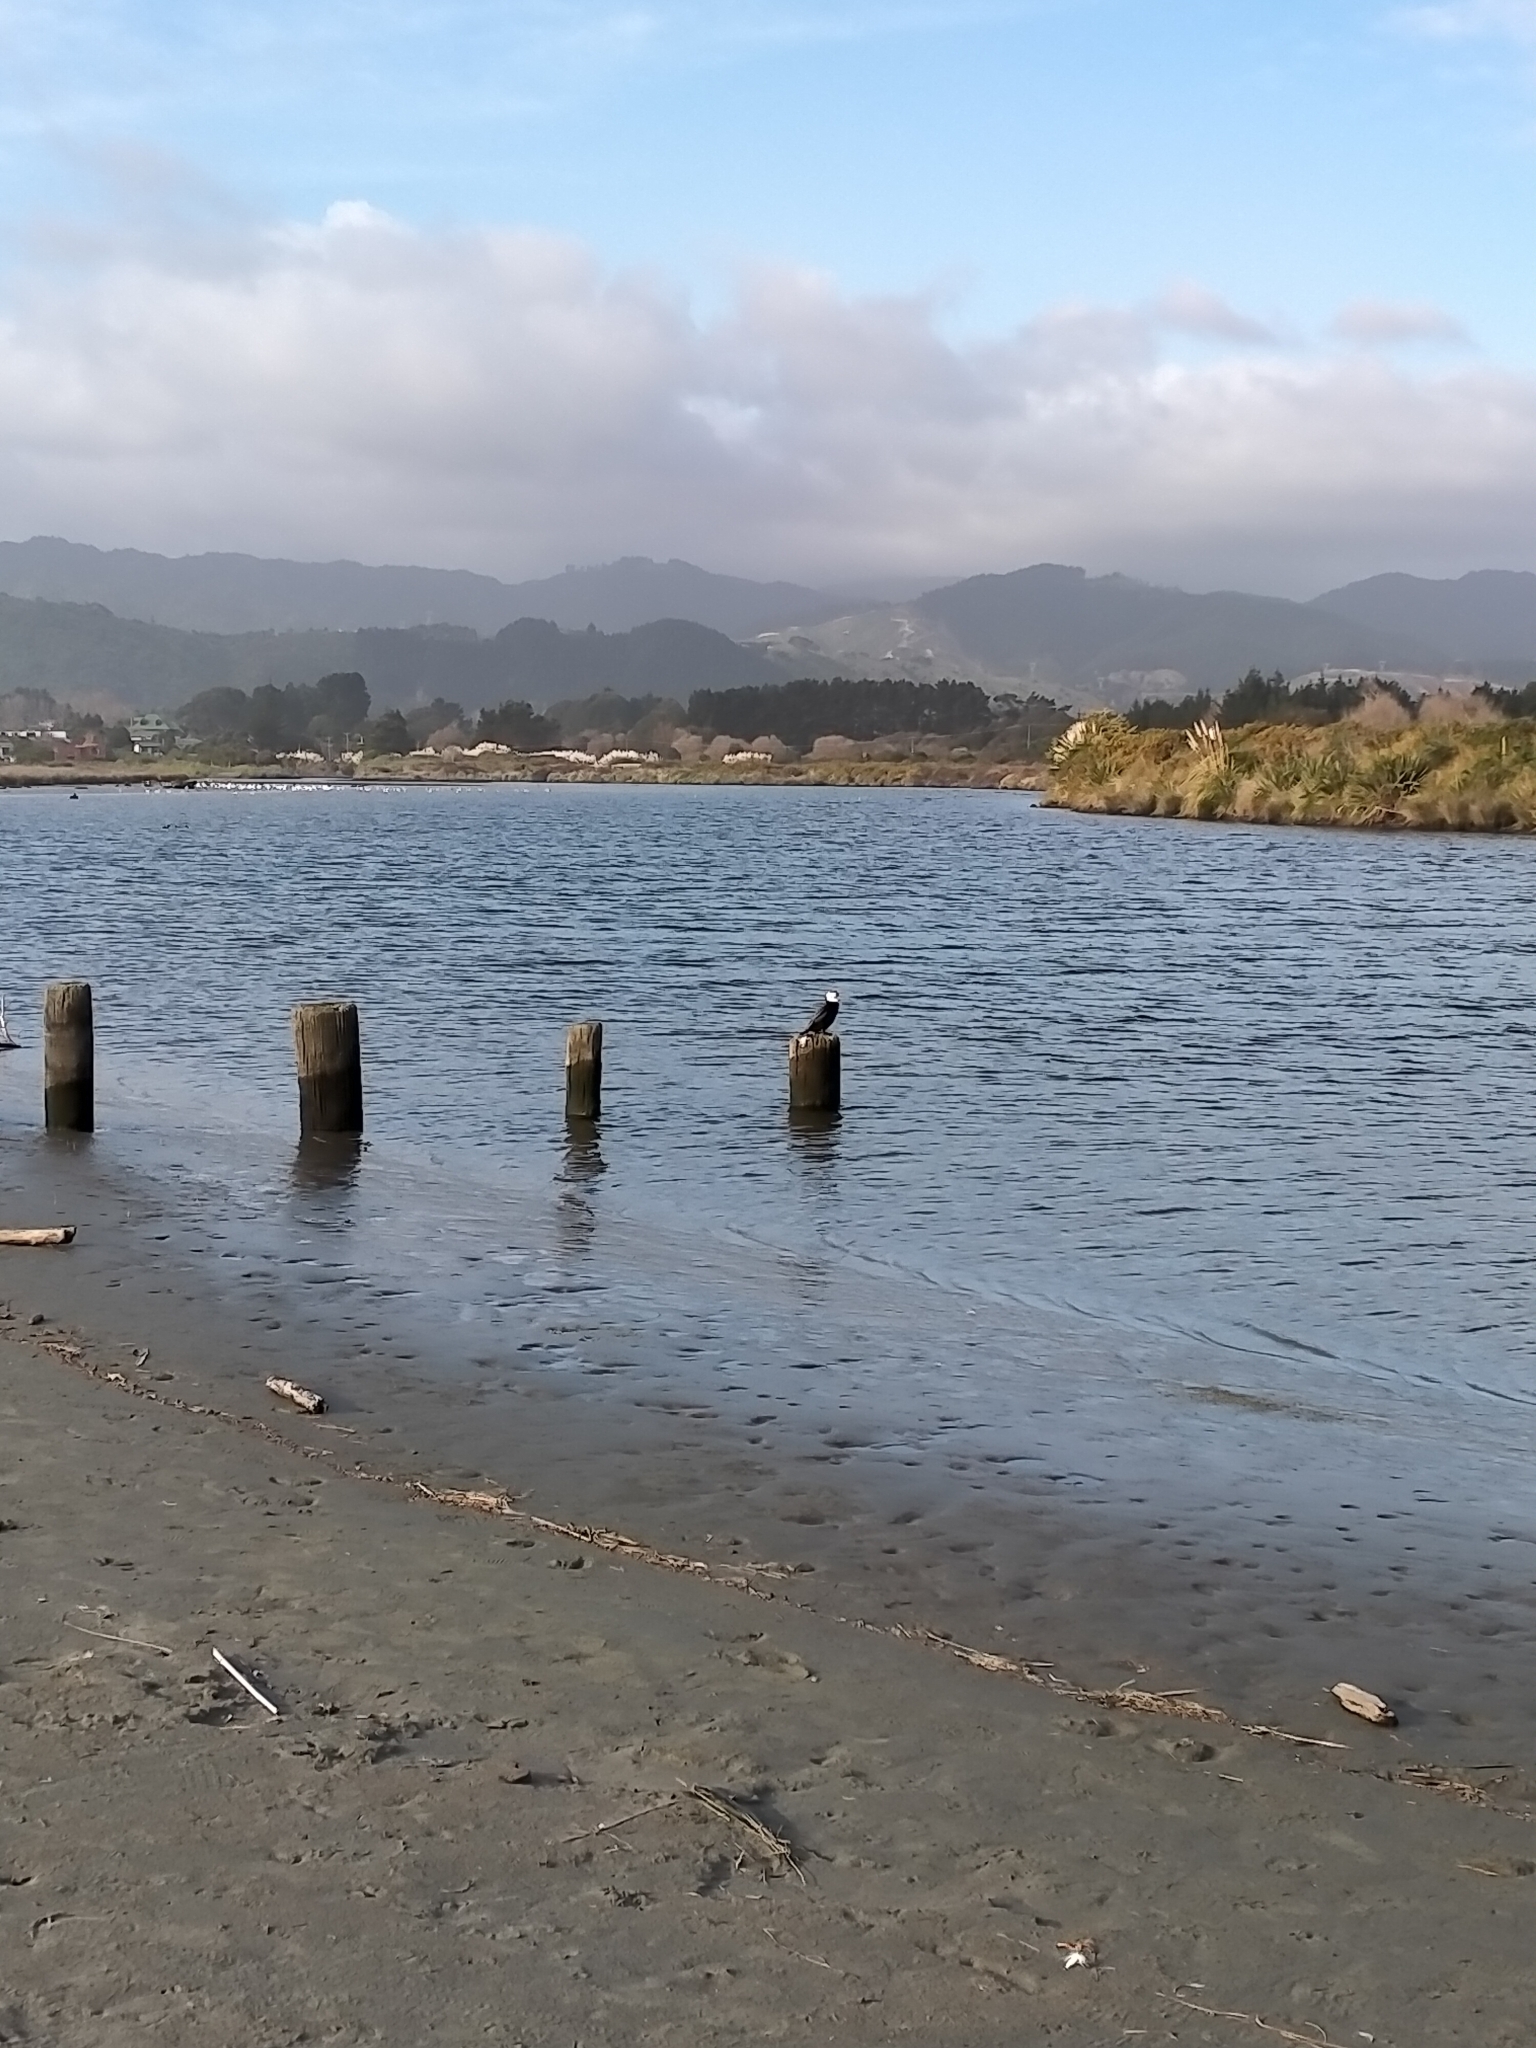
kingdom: Animalia
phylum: Chordata
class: Aves
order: Suliformes
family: Phalacrocoracidae
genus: Microcarbo
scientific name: Microcarbo melanoleucos
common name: Little pied cormorant
